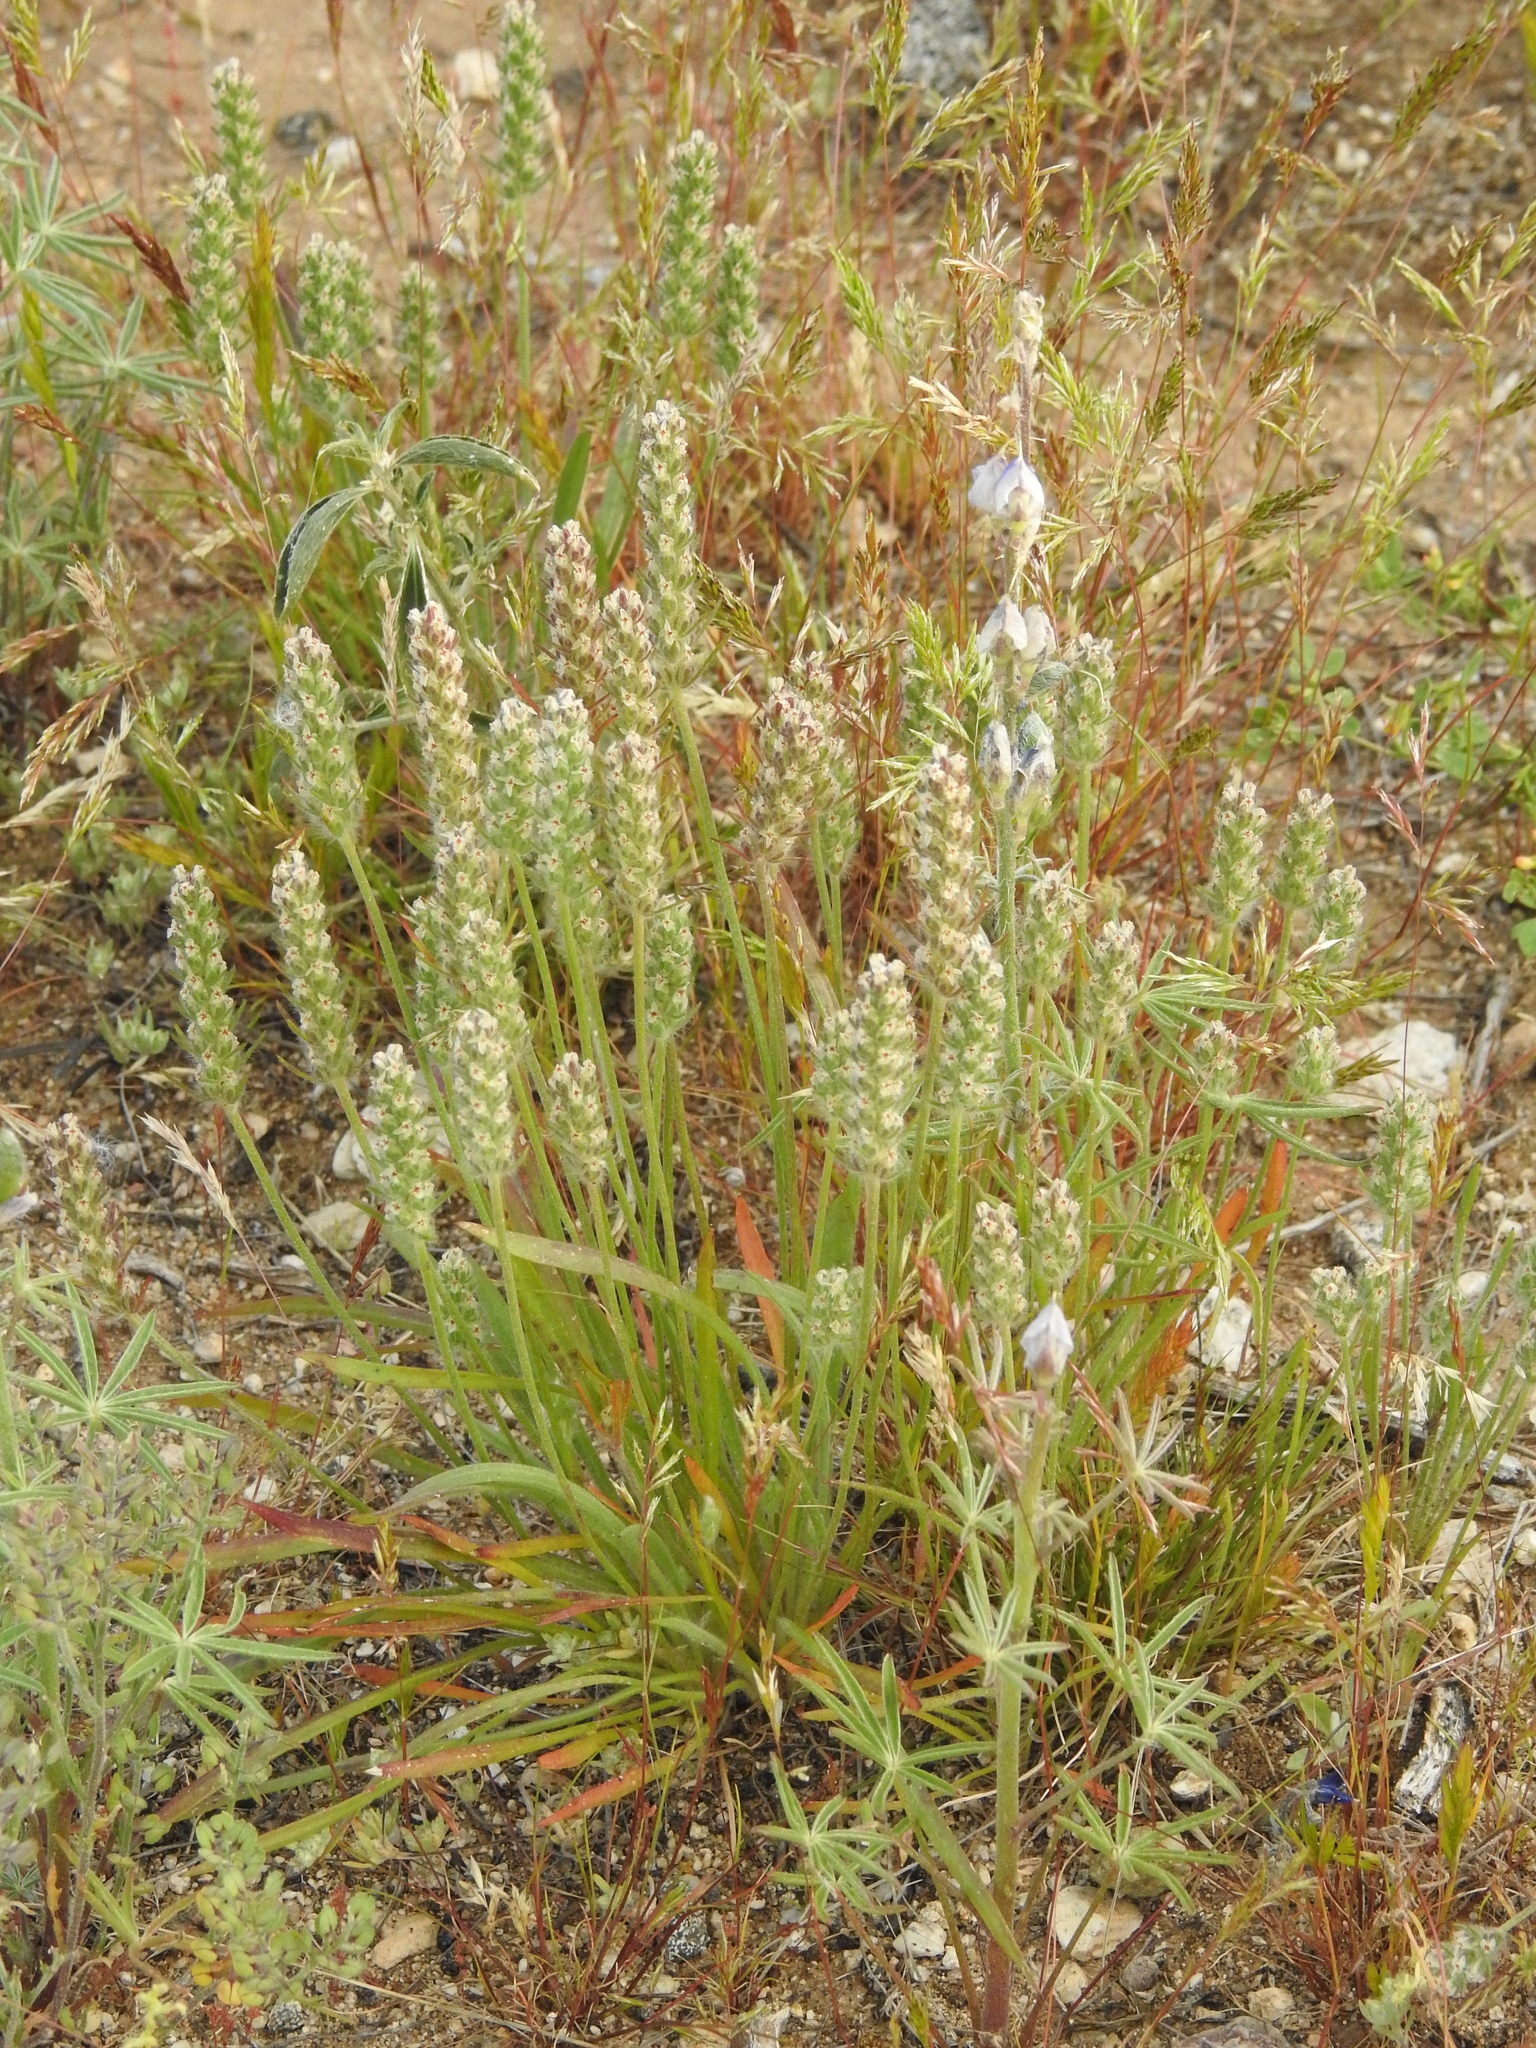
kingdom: Plantae
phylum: Tracheophyta
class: Magnoliopsida
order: Lamiales
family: Plantaginaceae
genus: Plantago
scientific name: Plantago patagonica
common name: Patagonia indian-wheat
